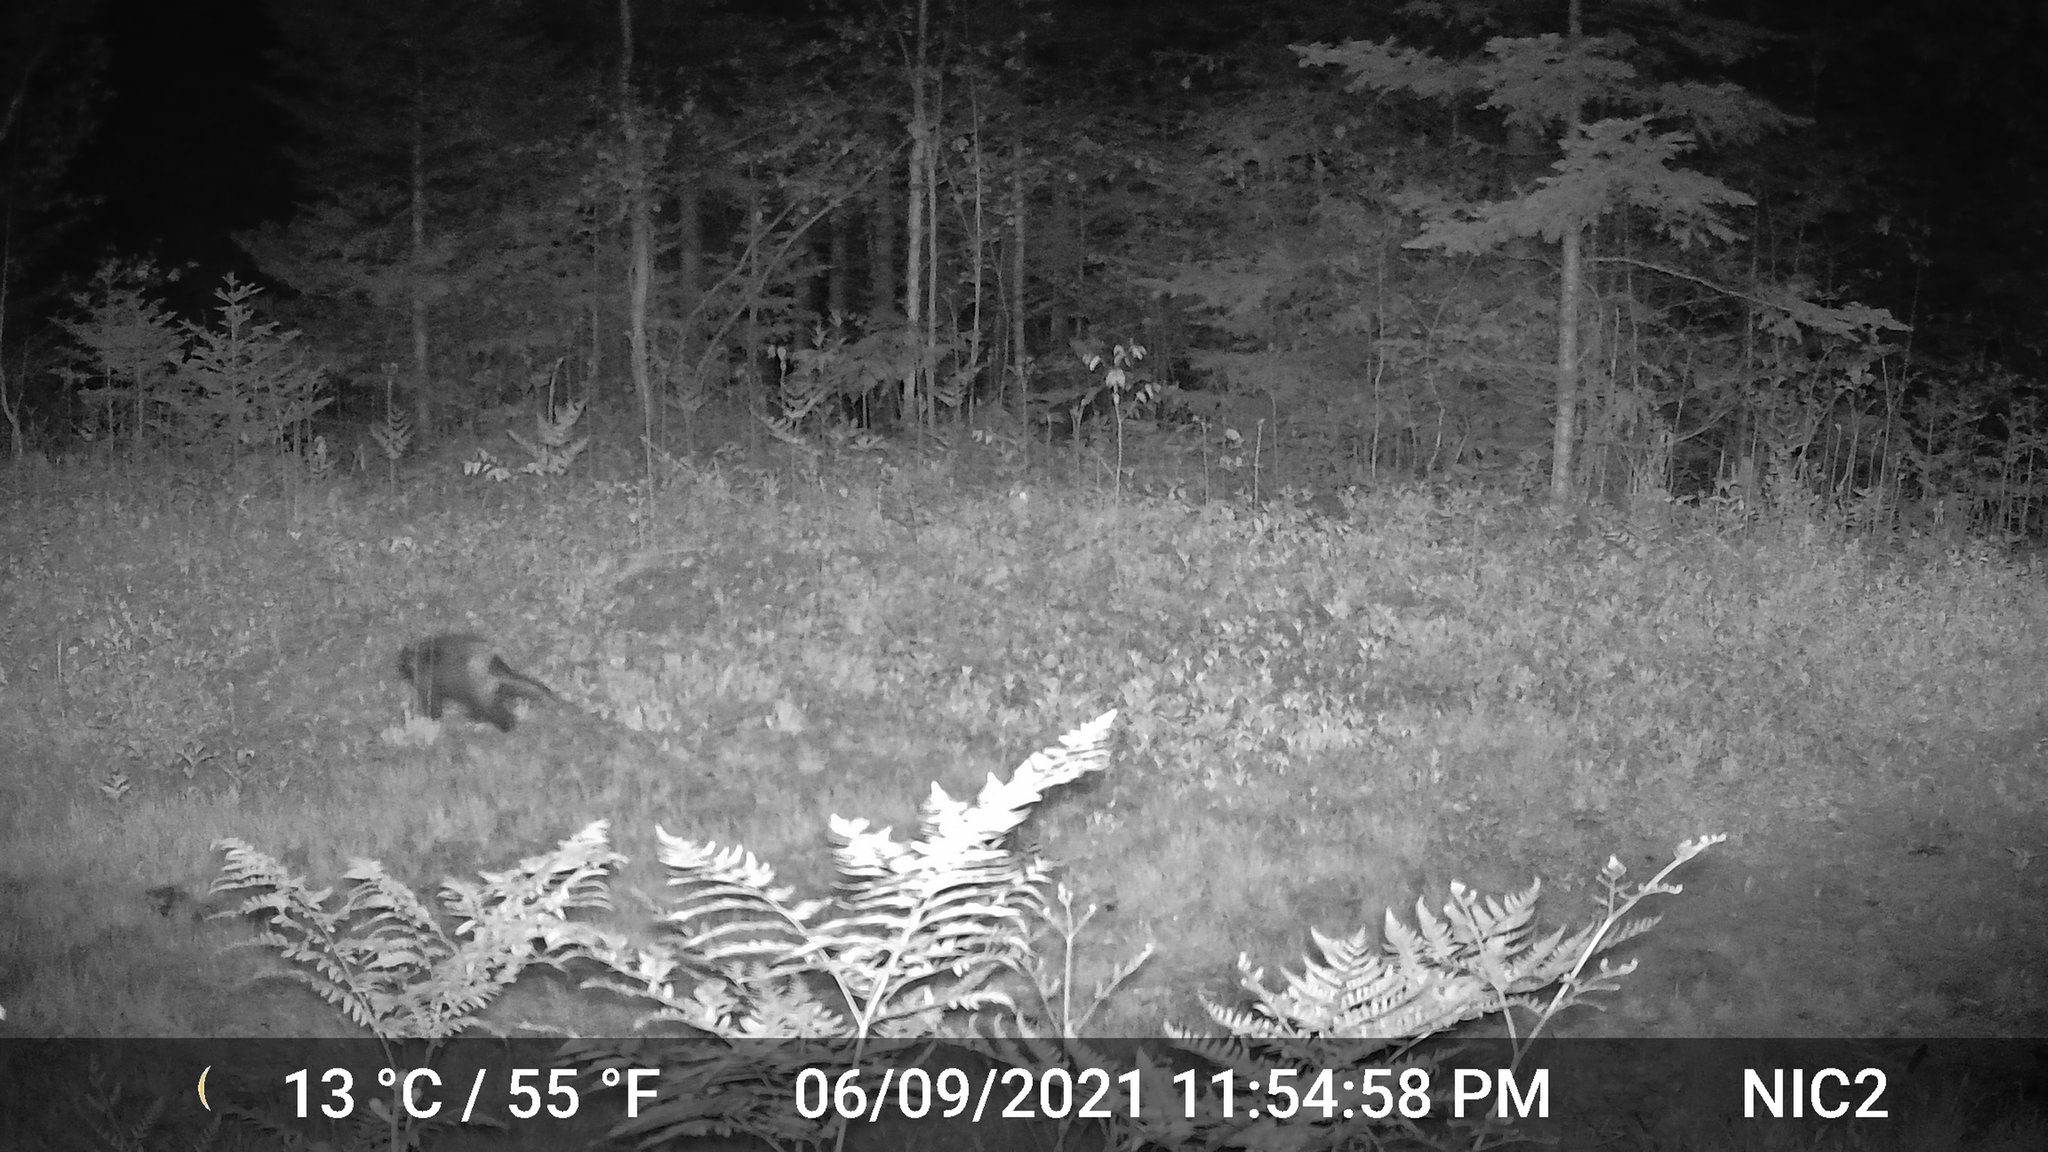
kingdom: Animalia
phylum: Chordata
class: Mammalia
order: Rodentia
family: Erethizontidae
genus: Erethizon
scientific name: Erethizon dorsatus
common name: North american porcupine
